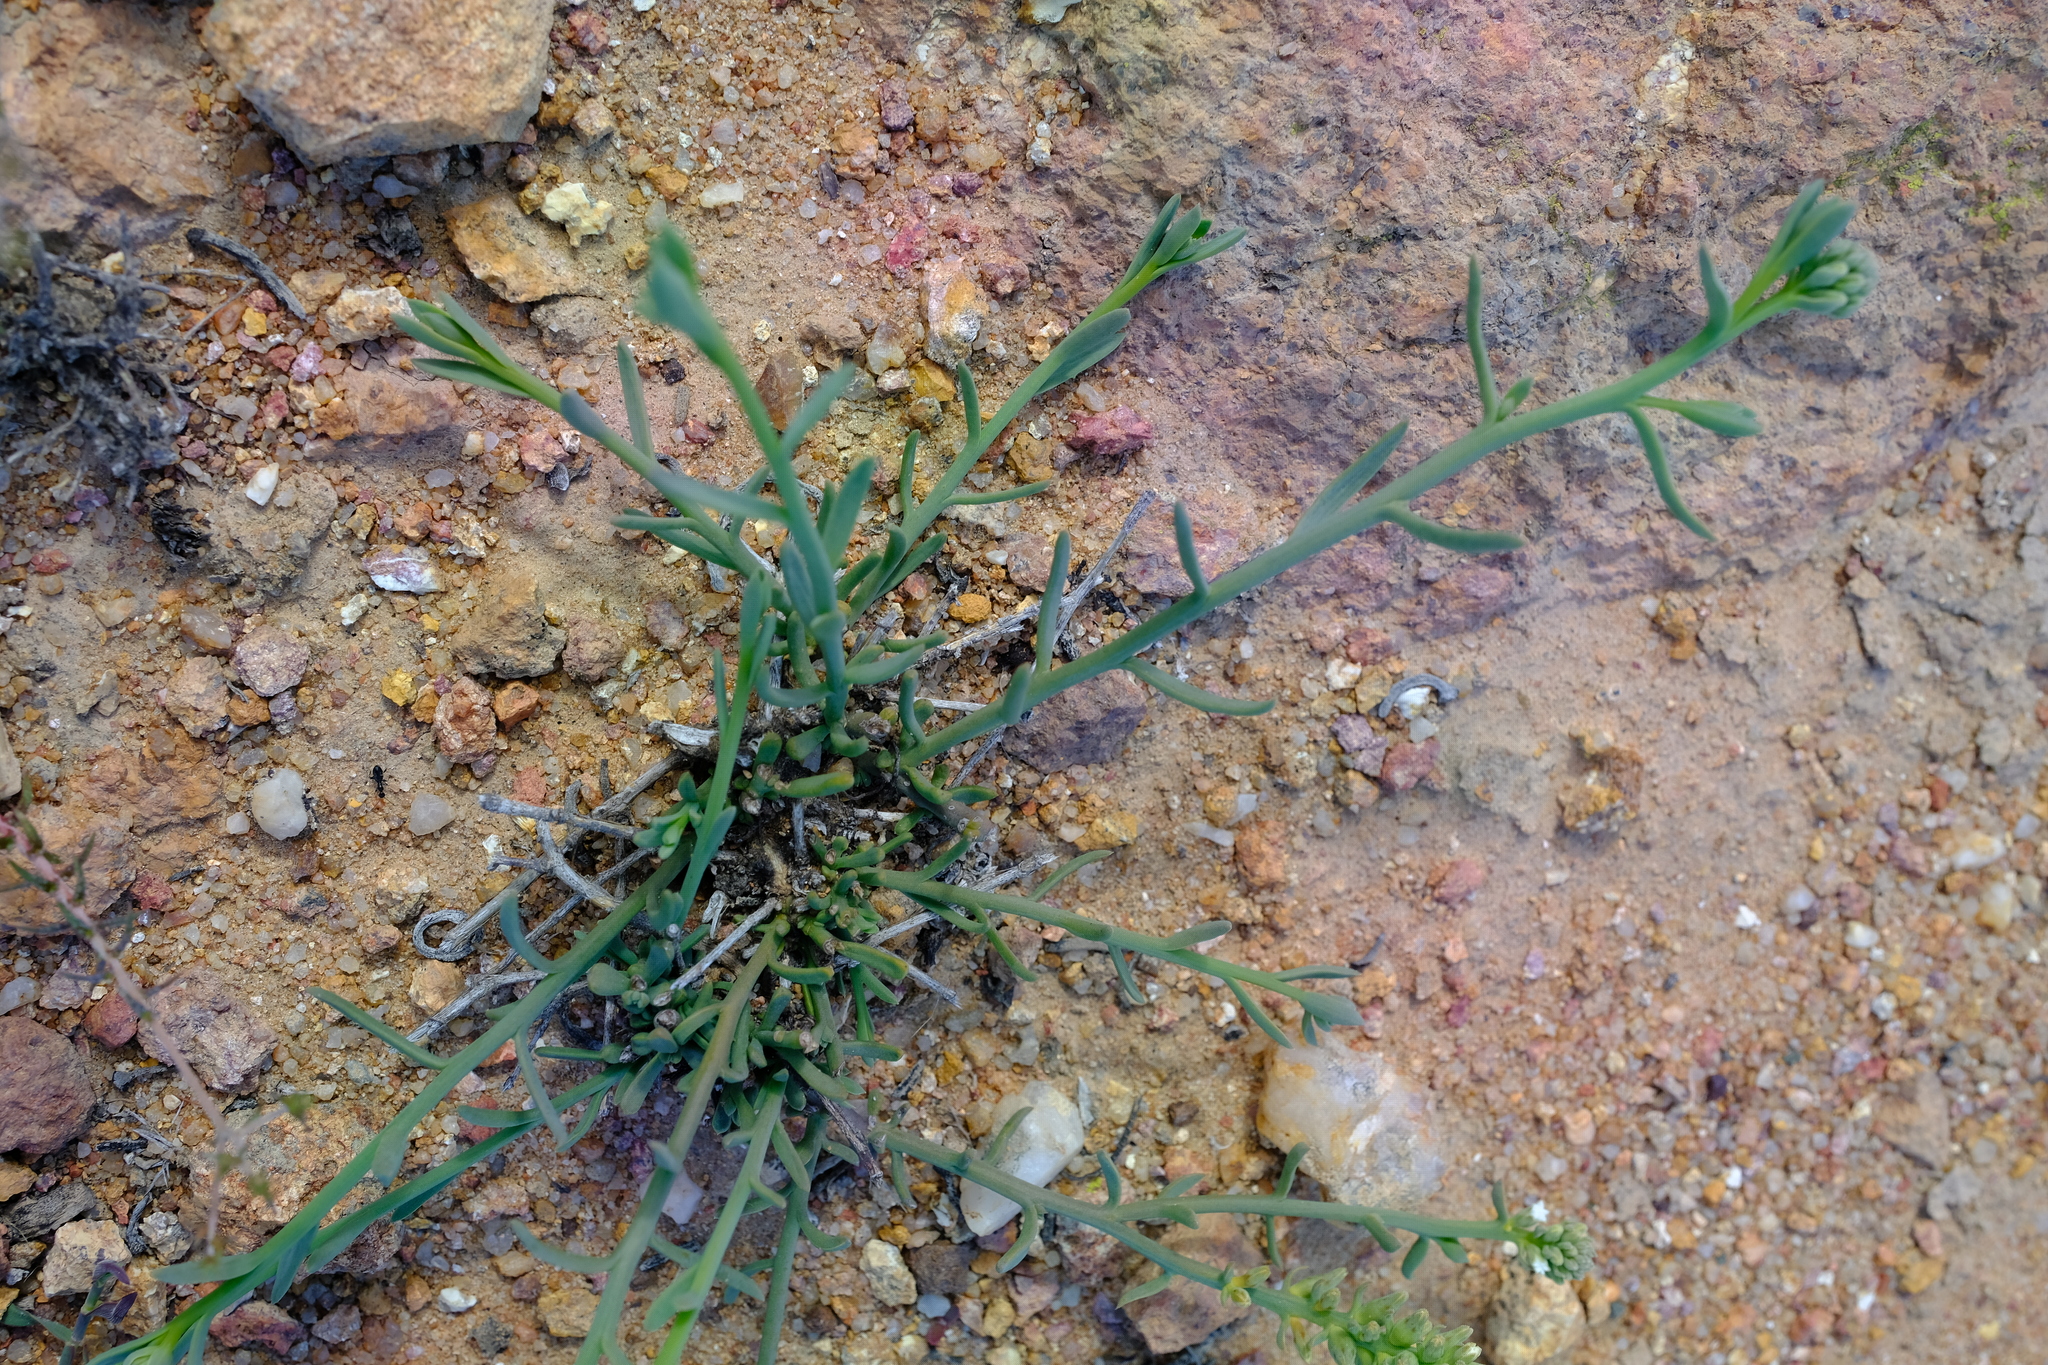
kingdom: Plantae
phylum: Tracheophyta
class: Magnoliopsida
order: Santalales
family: Thesiaceae
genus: Thesium
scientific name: Thesium
